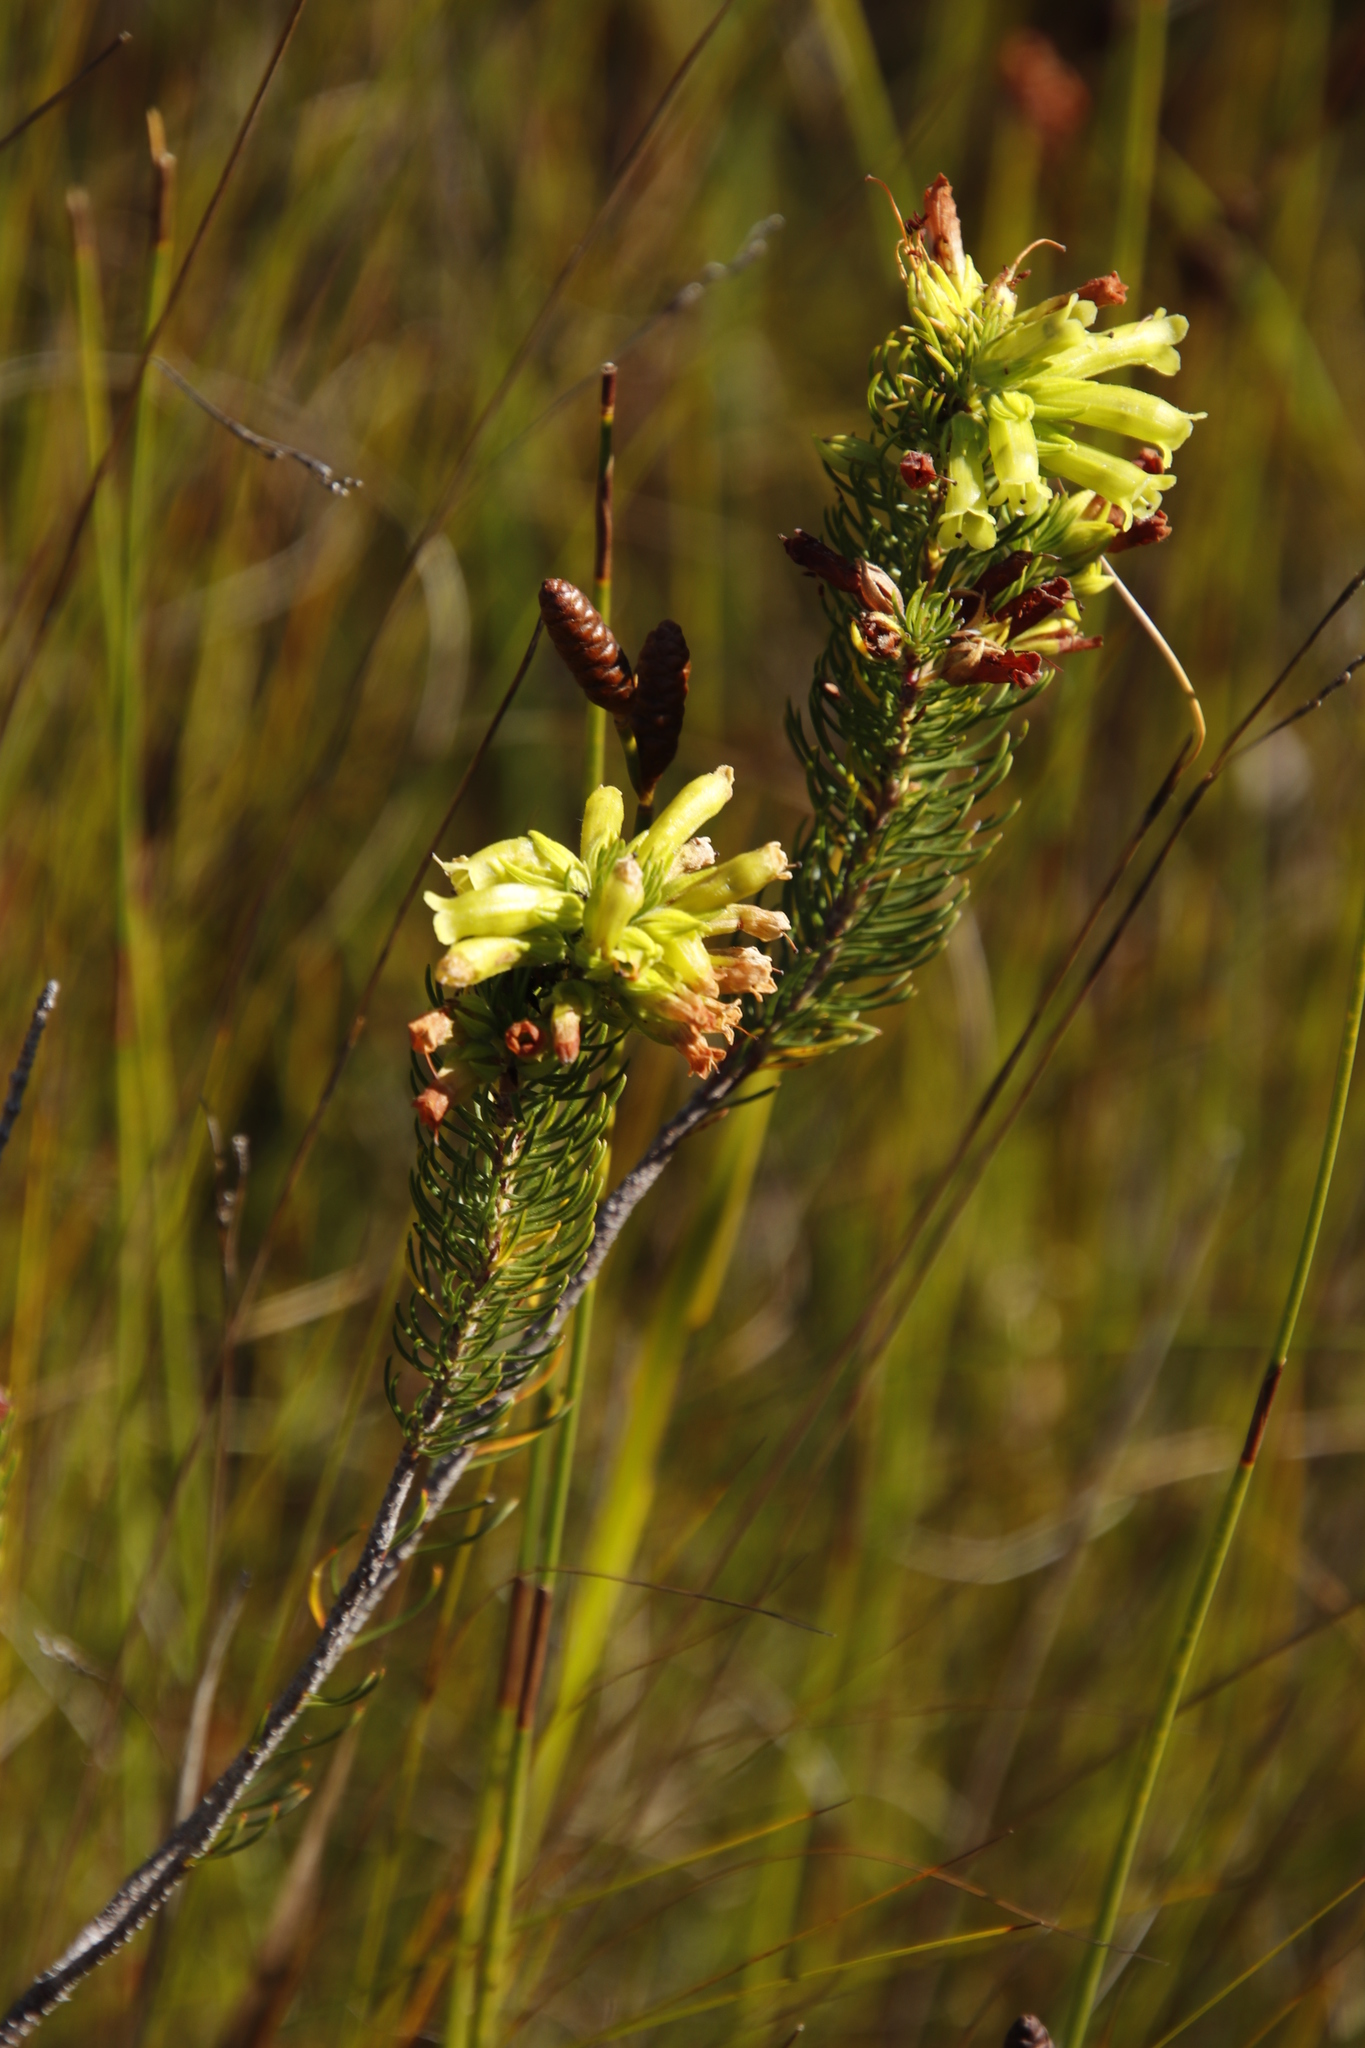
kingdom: Plantae
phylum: Tracheophyta
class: Magnoliopsida
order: Ericales
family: Ericaceae
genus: Erica
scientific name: Erica viscaria
